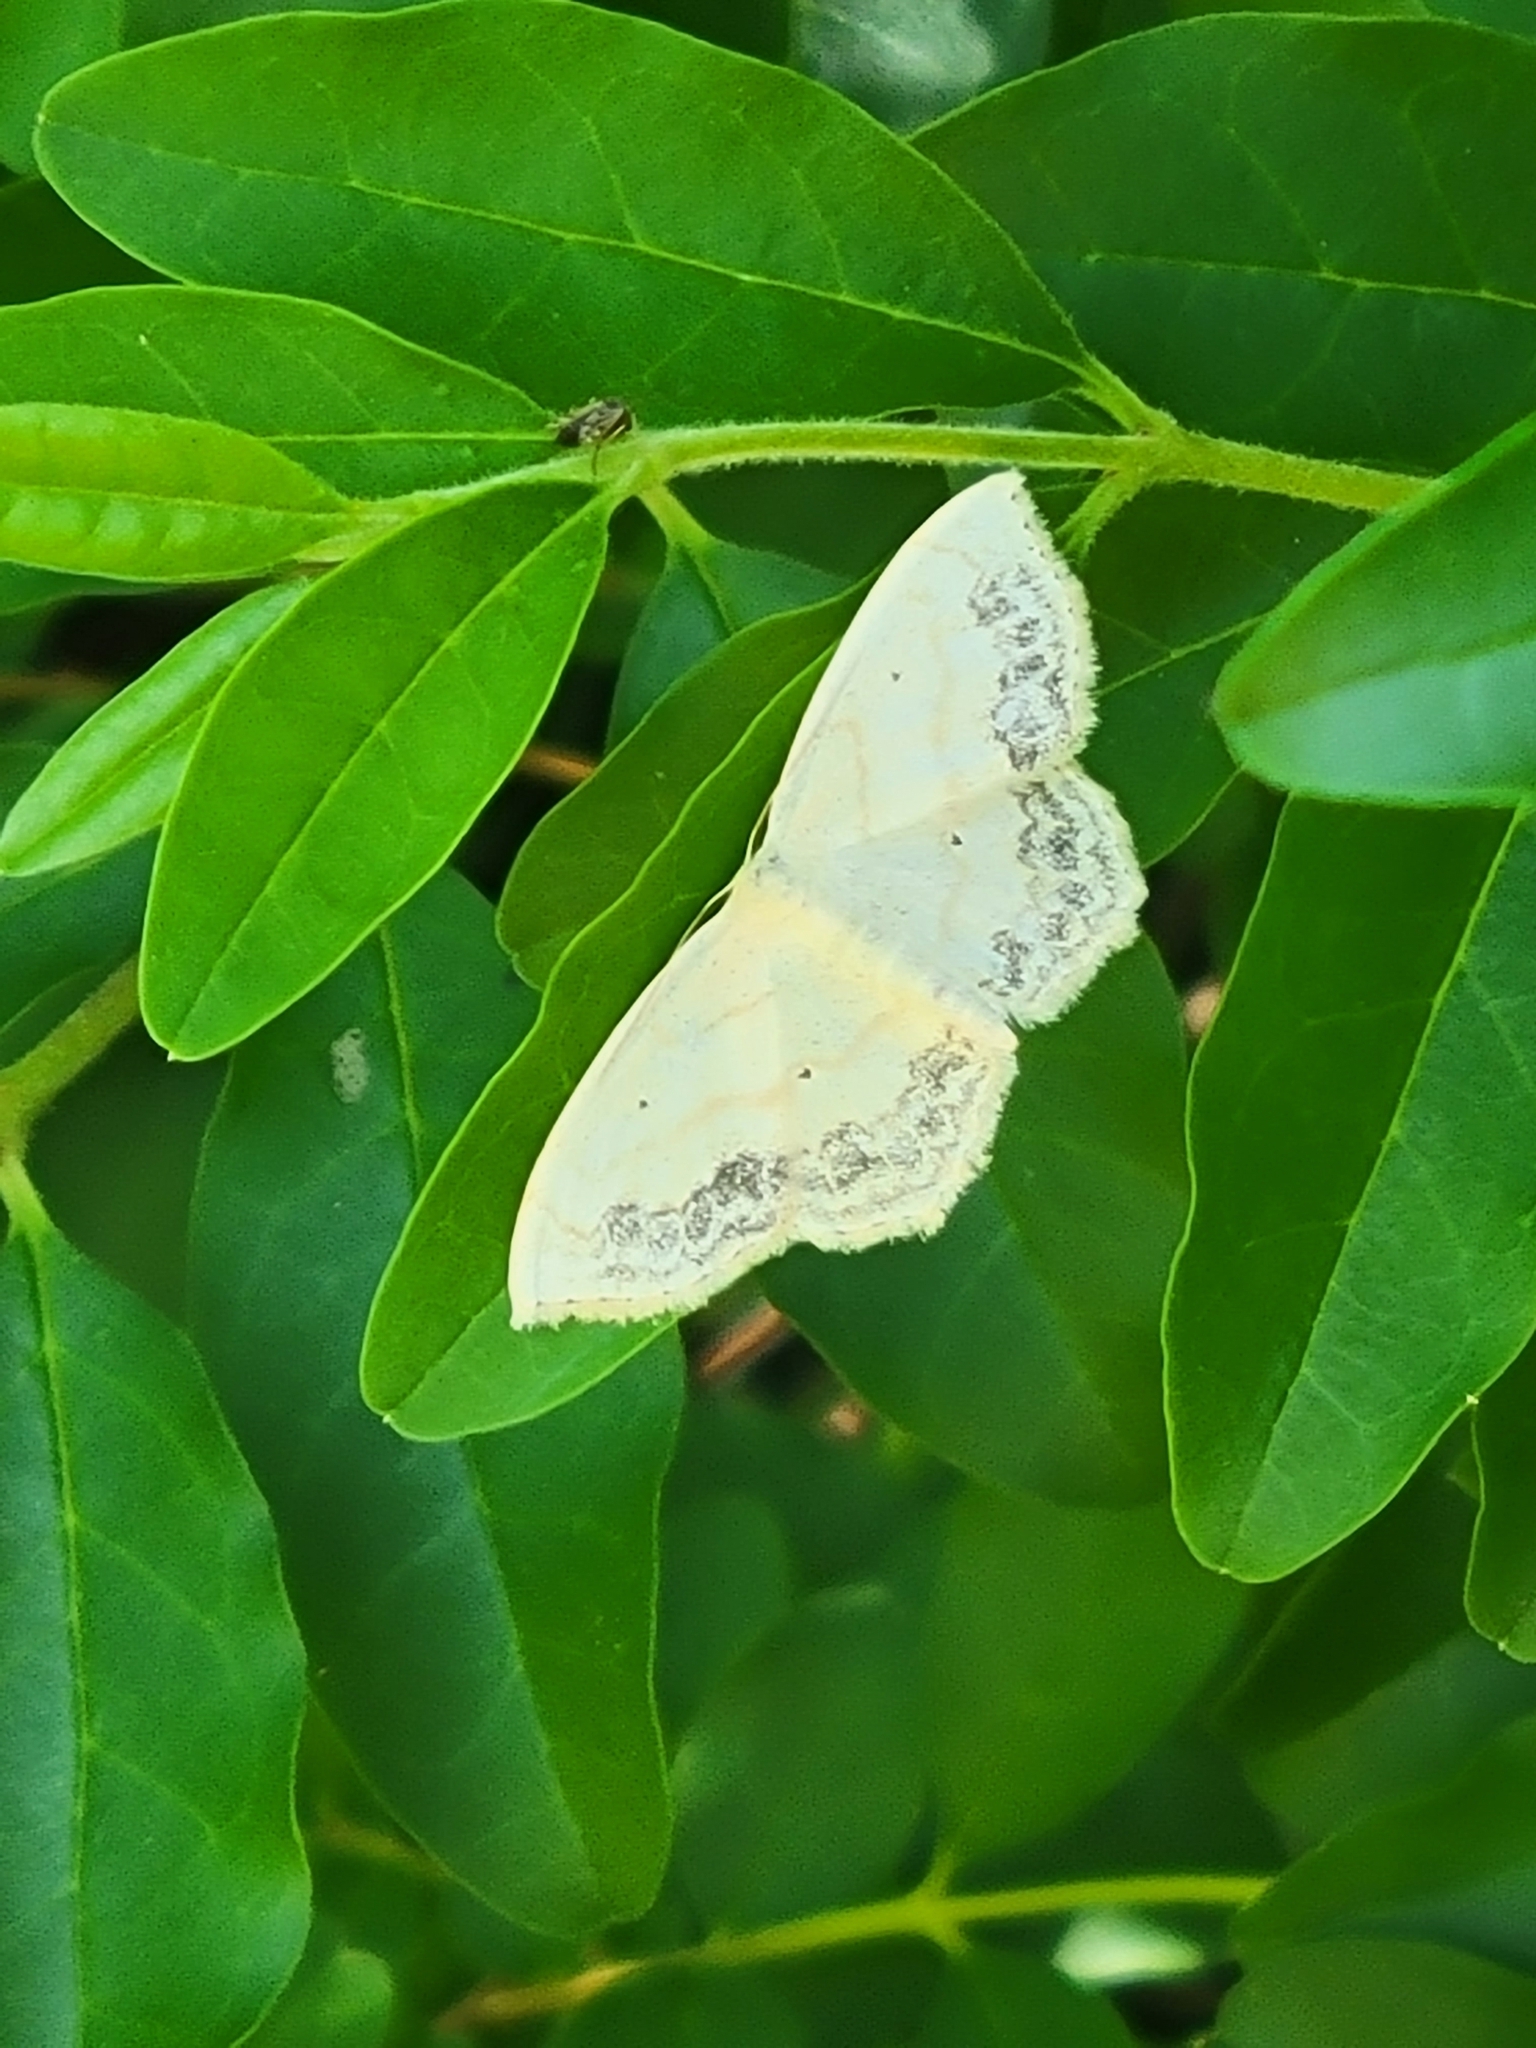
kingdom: Animalia
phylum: Arthropoda
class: Insecta
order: Lepidoptera
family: Geometridae
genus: Scopula
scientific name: Scopula limboundata
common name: Large lace border
